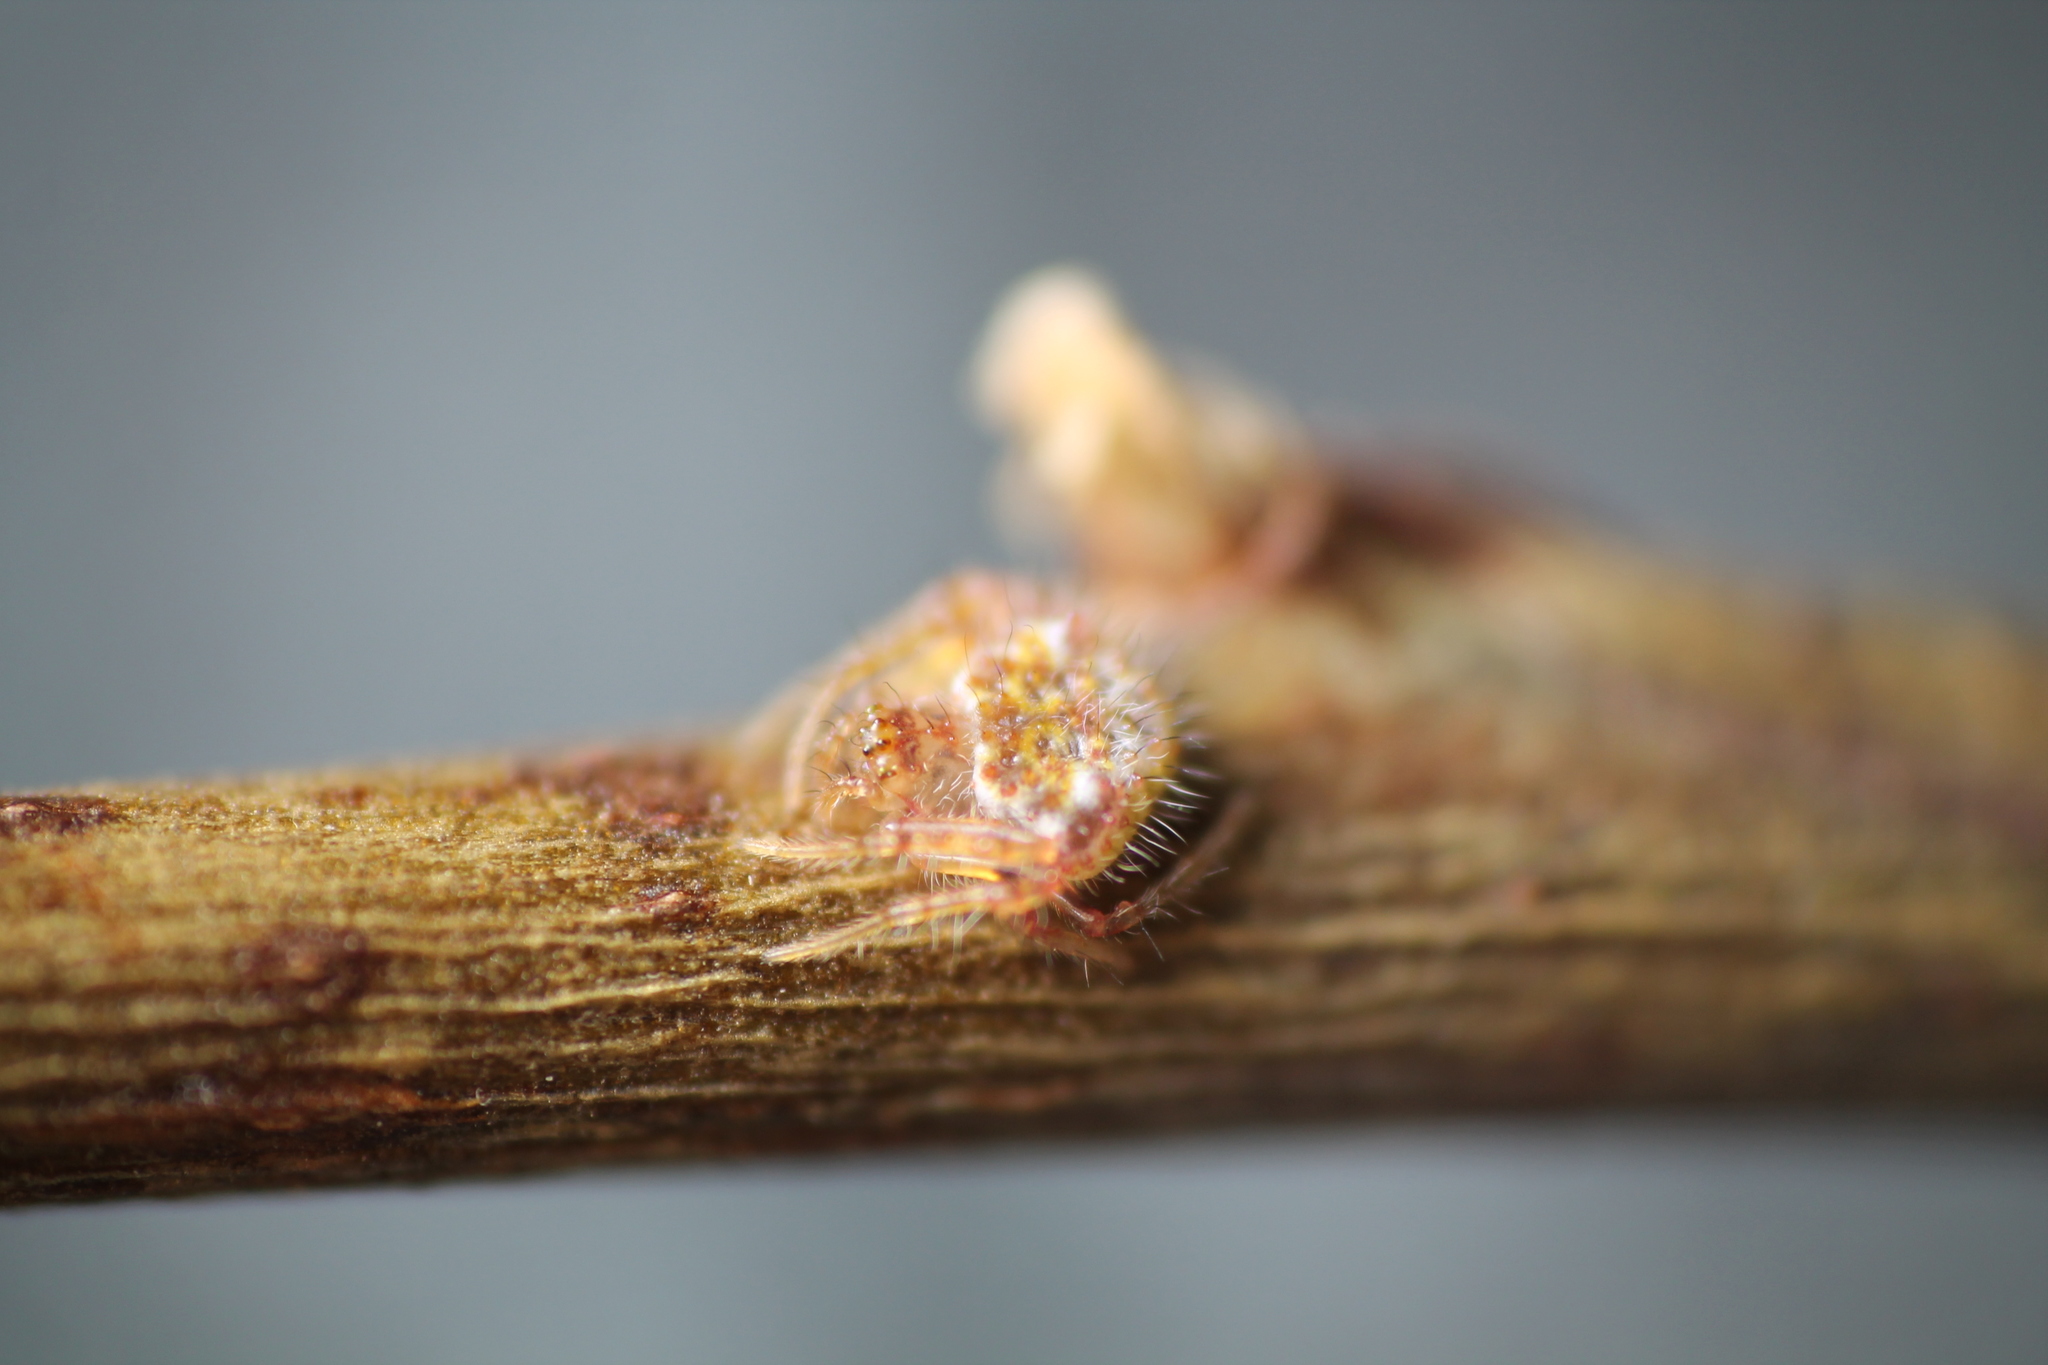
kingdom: Animalia
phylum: Arthropoda
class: Arachnida
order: Araneae
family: Araneidae
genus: Poecilopachys
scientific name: Poecilopachys australasia
